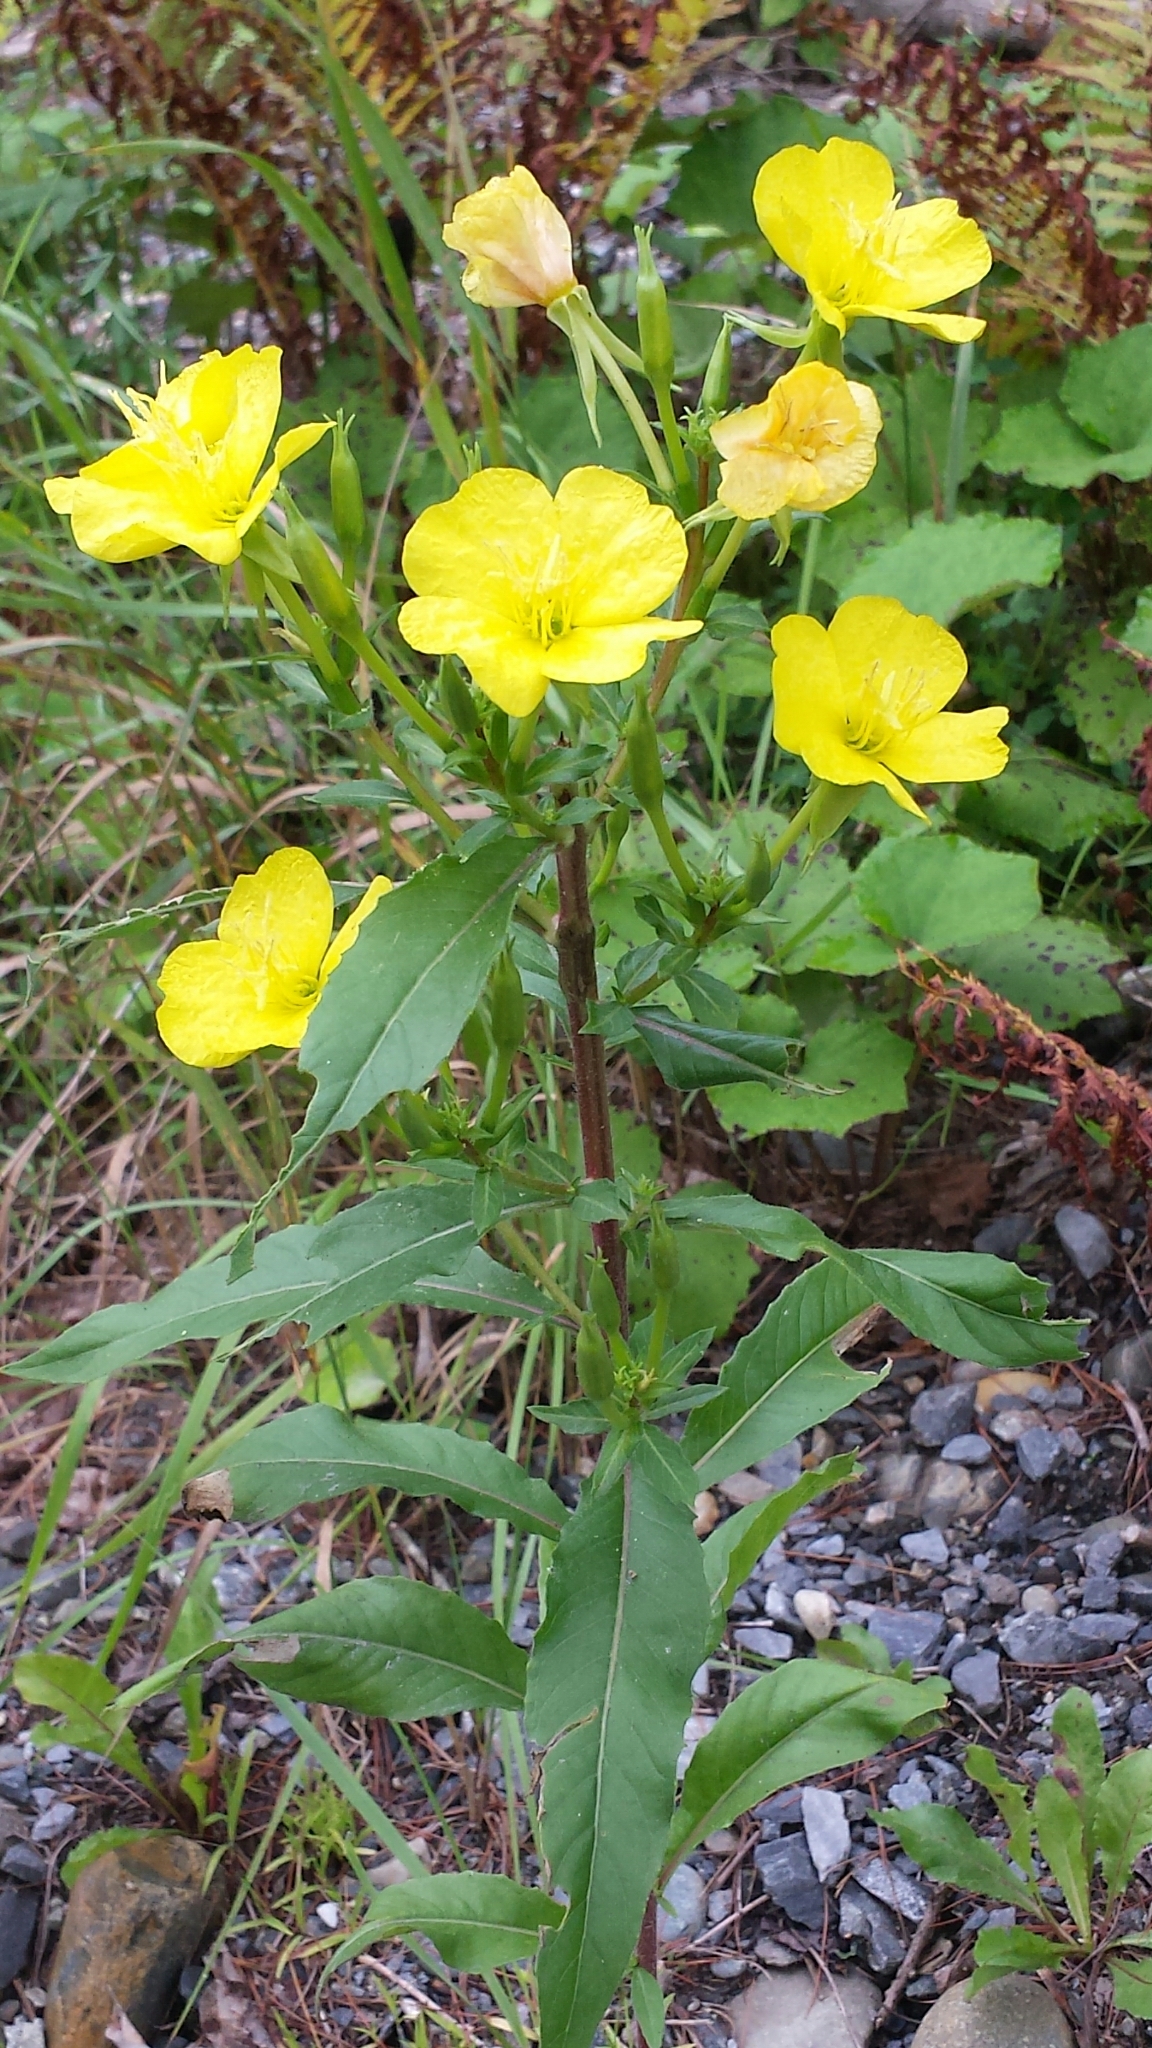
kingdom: Plantae
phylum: Tracheophyta
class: Magnoliopsida
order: Myrtales
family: Onagraceae
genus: Oenothera
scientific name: Oenothera biennis
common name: Common evening-primrose
